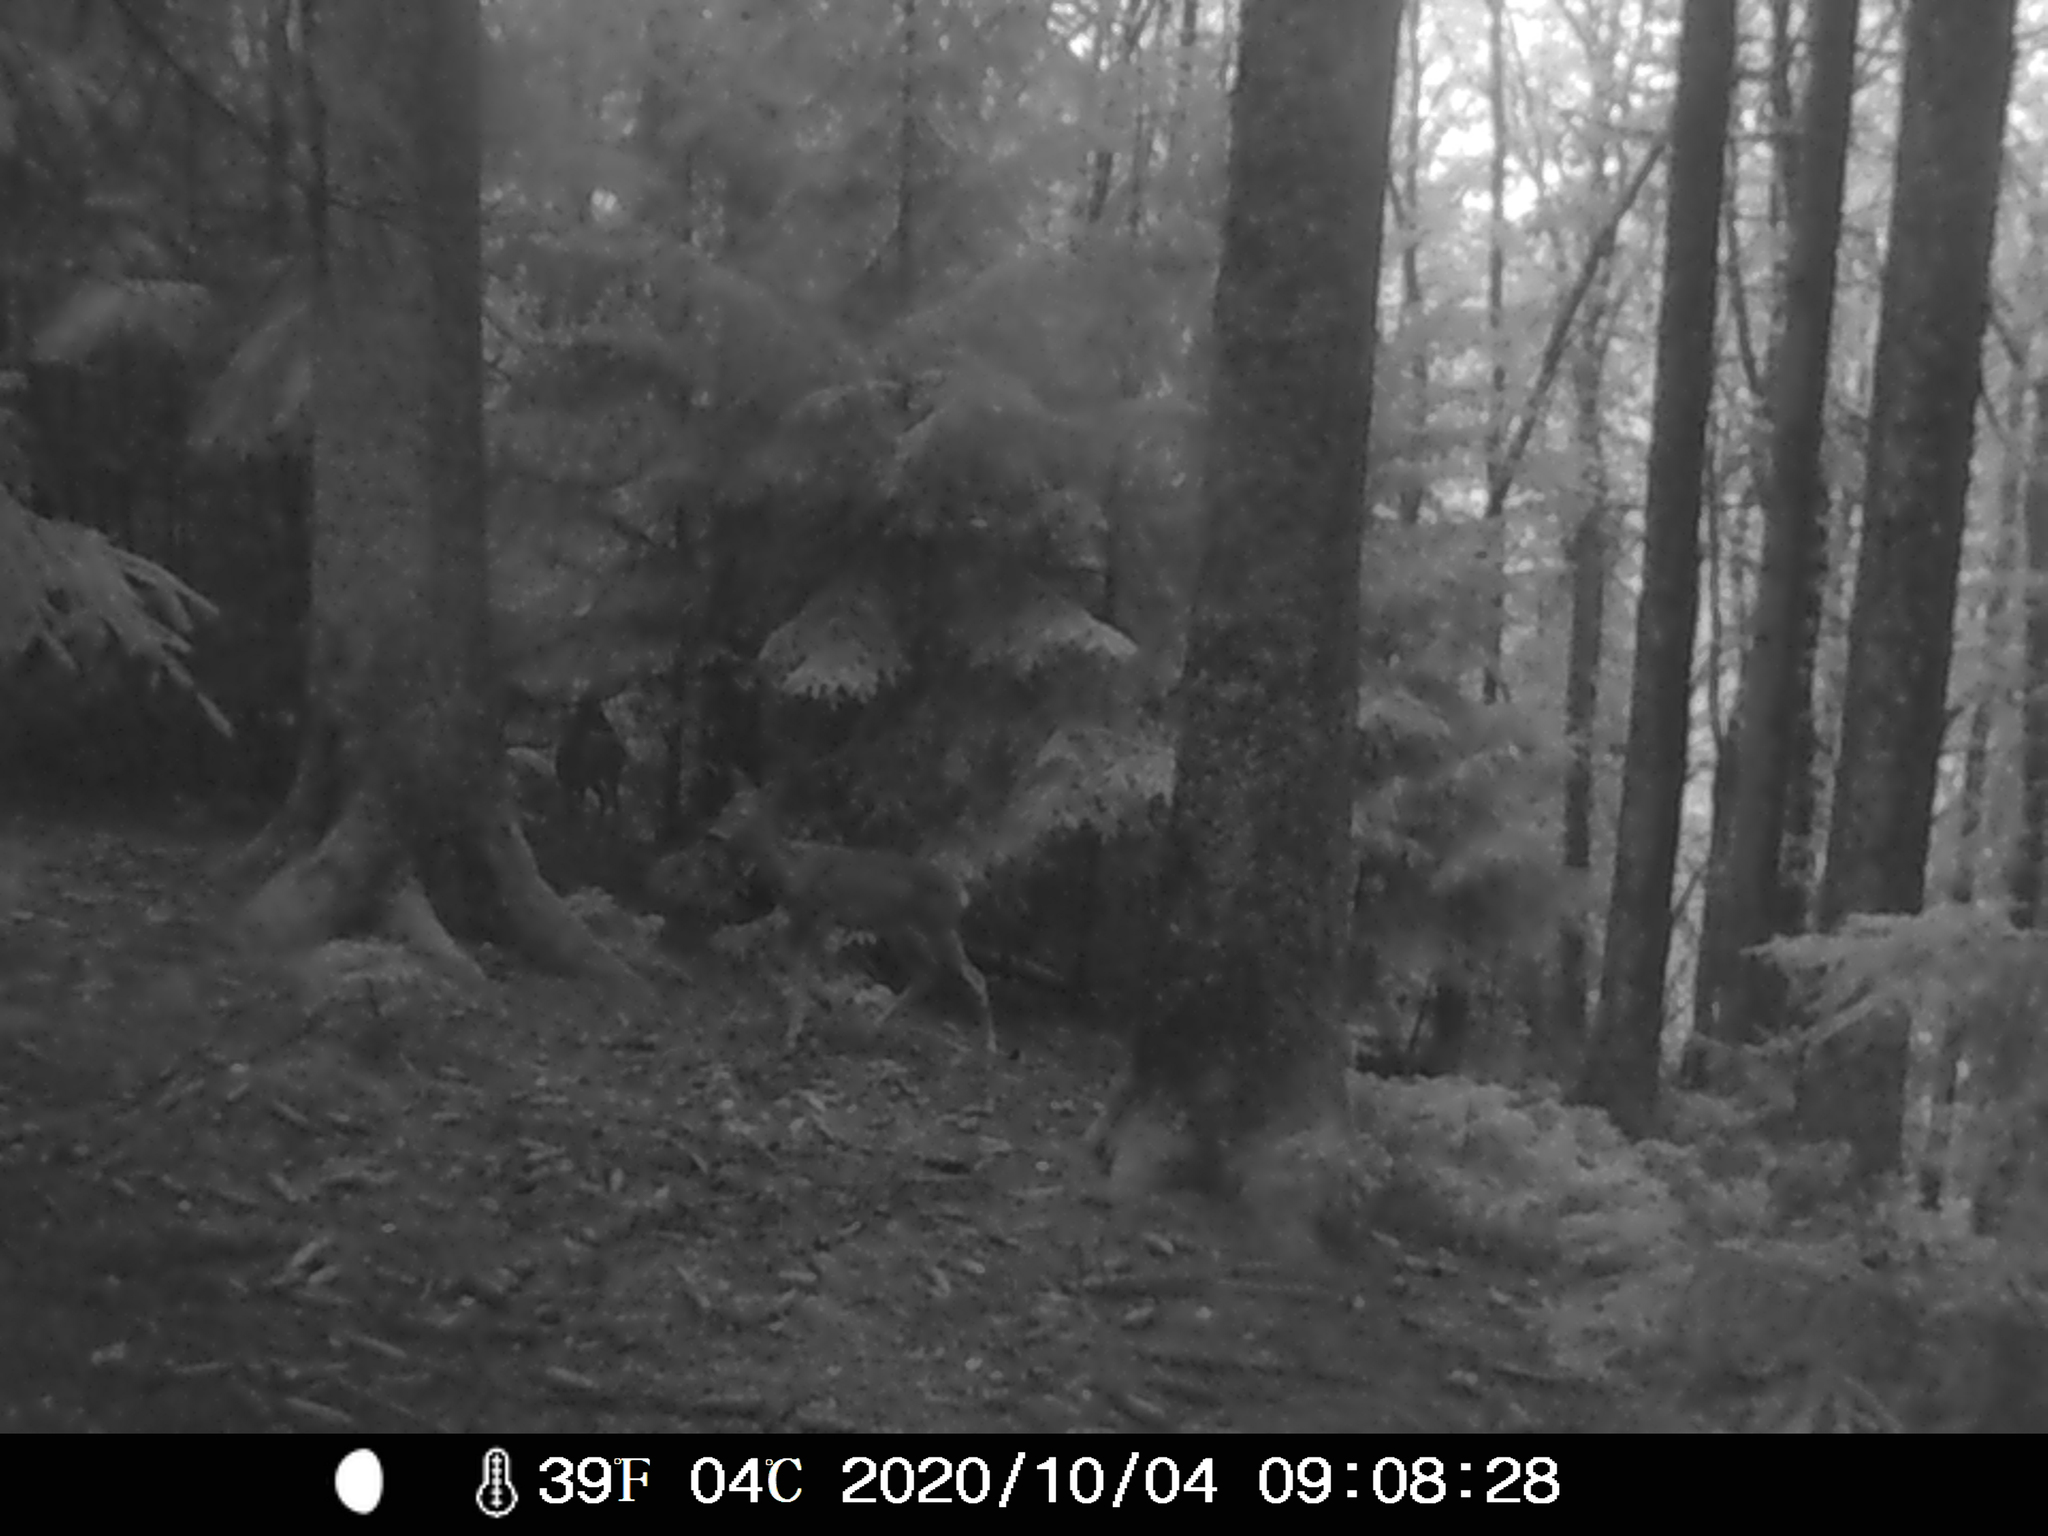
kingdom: Animalia
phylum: Chordata
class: Mammalia
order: Artiodactyla
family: Cervidae
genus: Capreolus
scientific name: Capreolus capreolus
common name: Western roe deer
